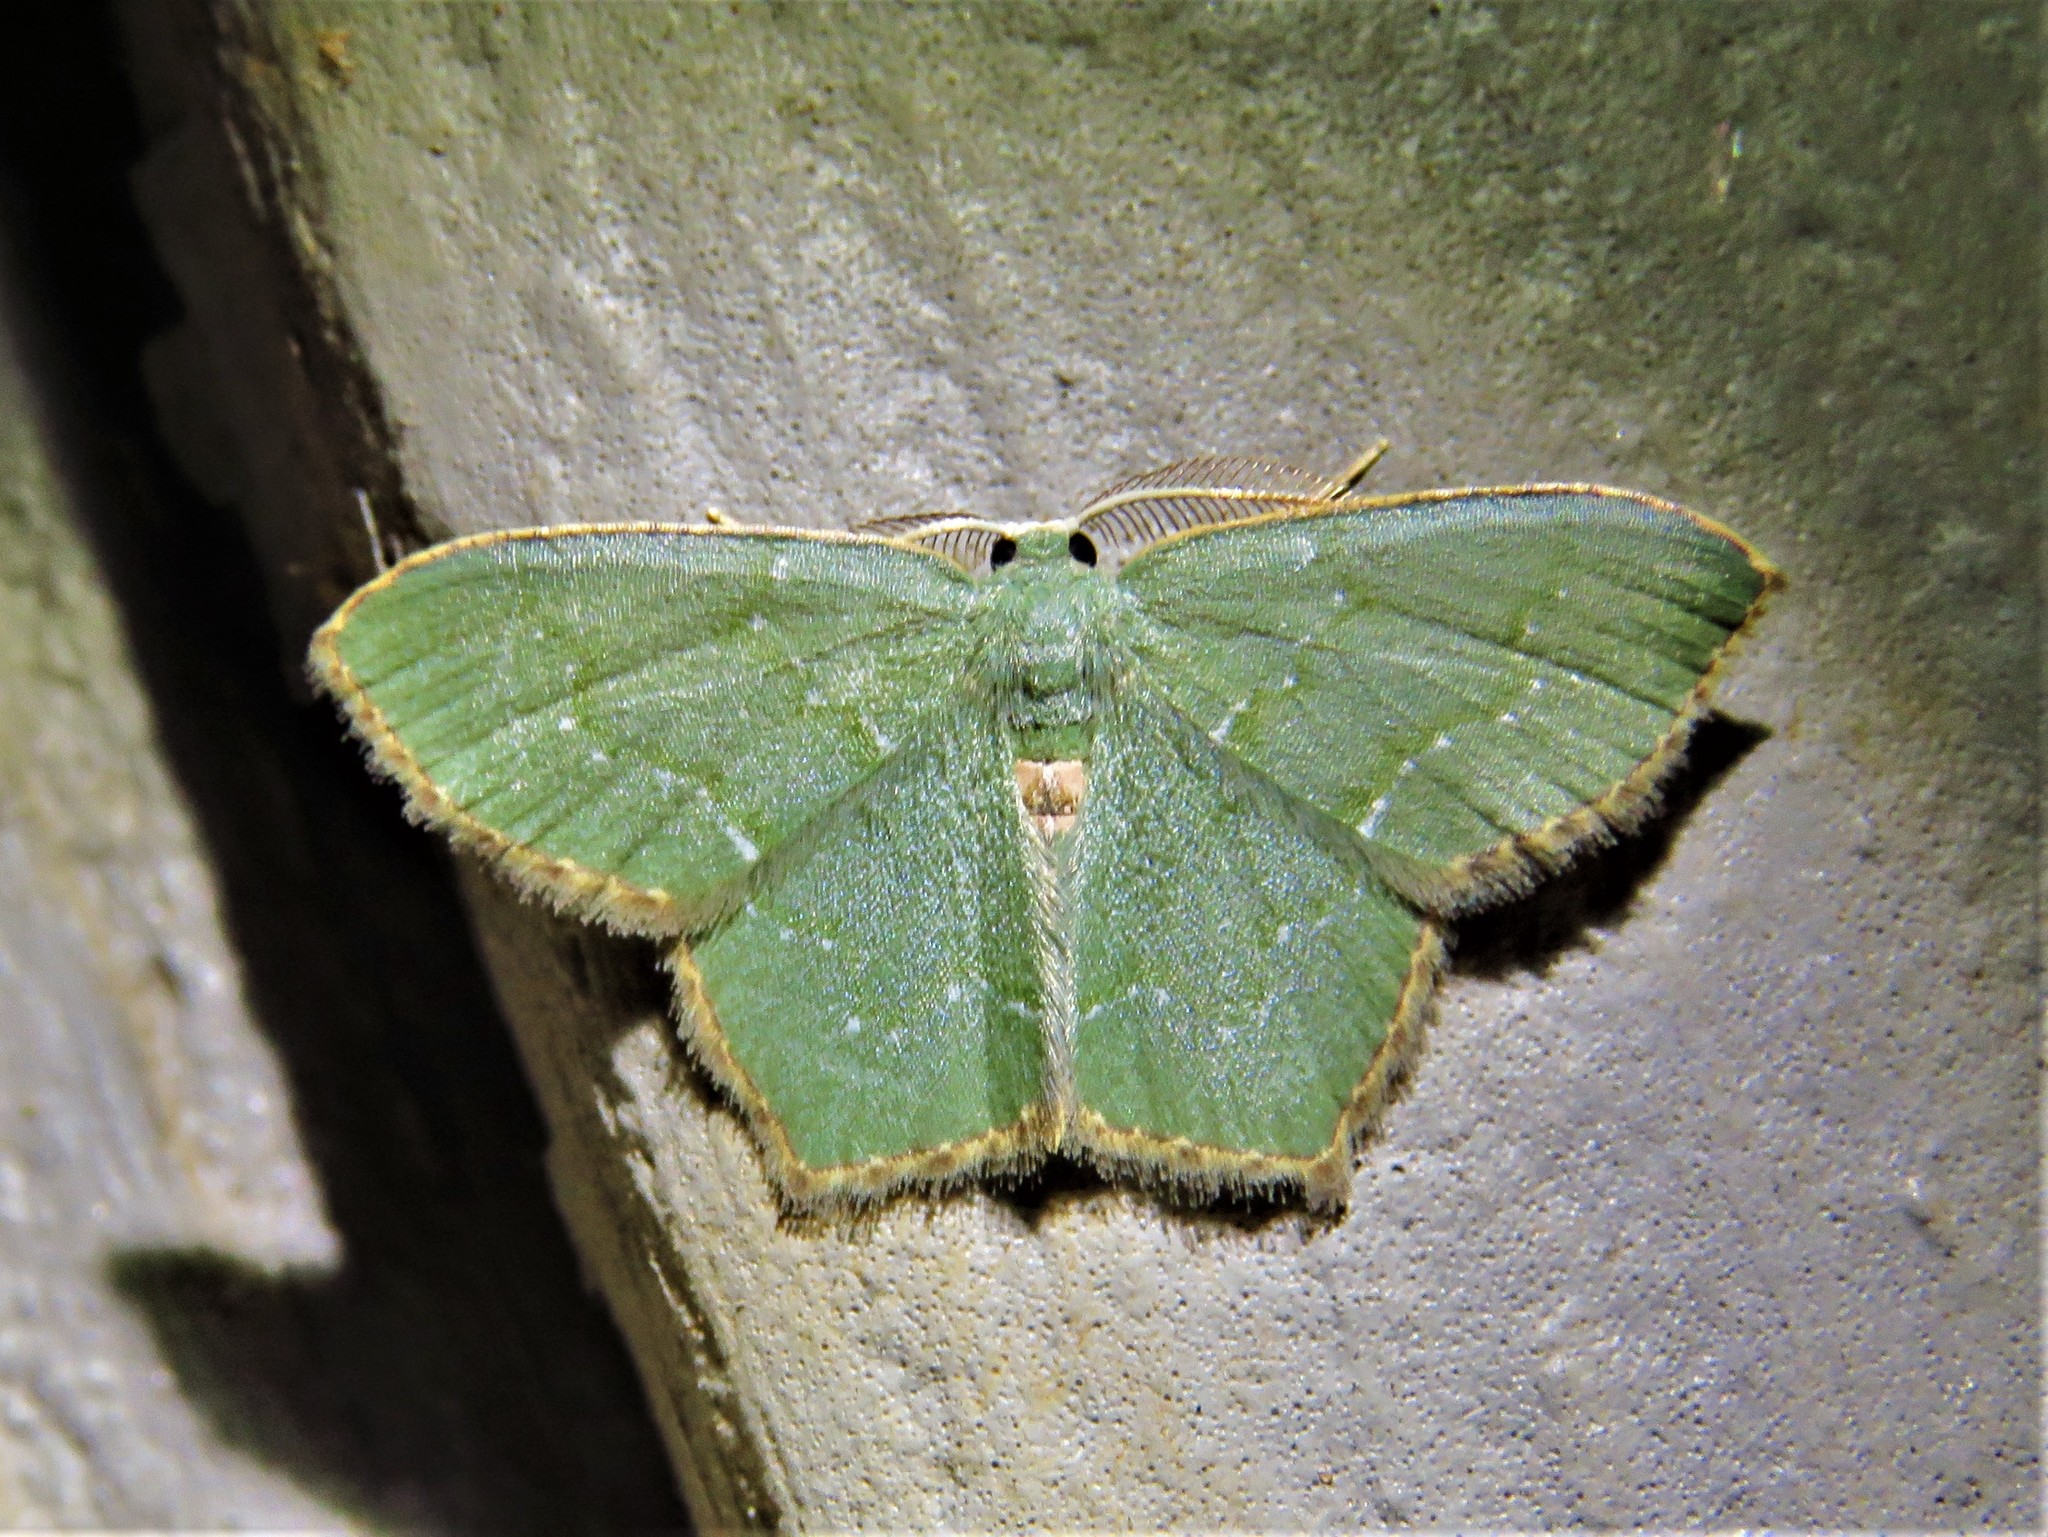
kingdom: Animalia
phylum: Arthropoda
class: Insecta
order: Lepidoptera
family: Geometridae
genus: Chloropteryx
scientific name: Chloropteryx tepperaria
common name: Angle winged emerald moth
